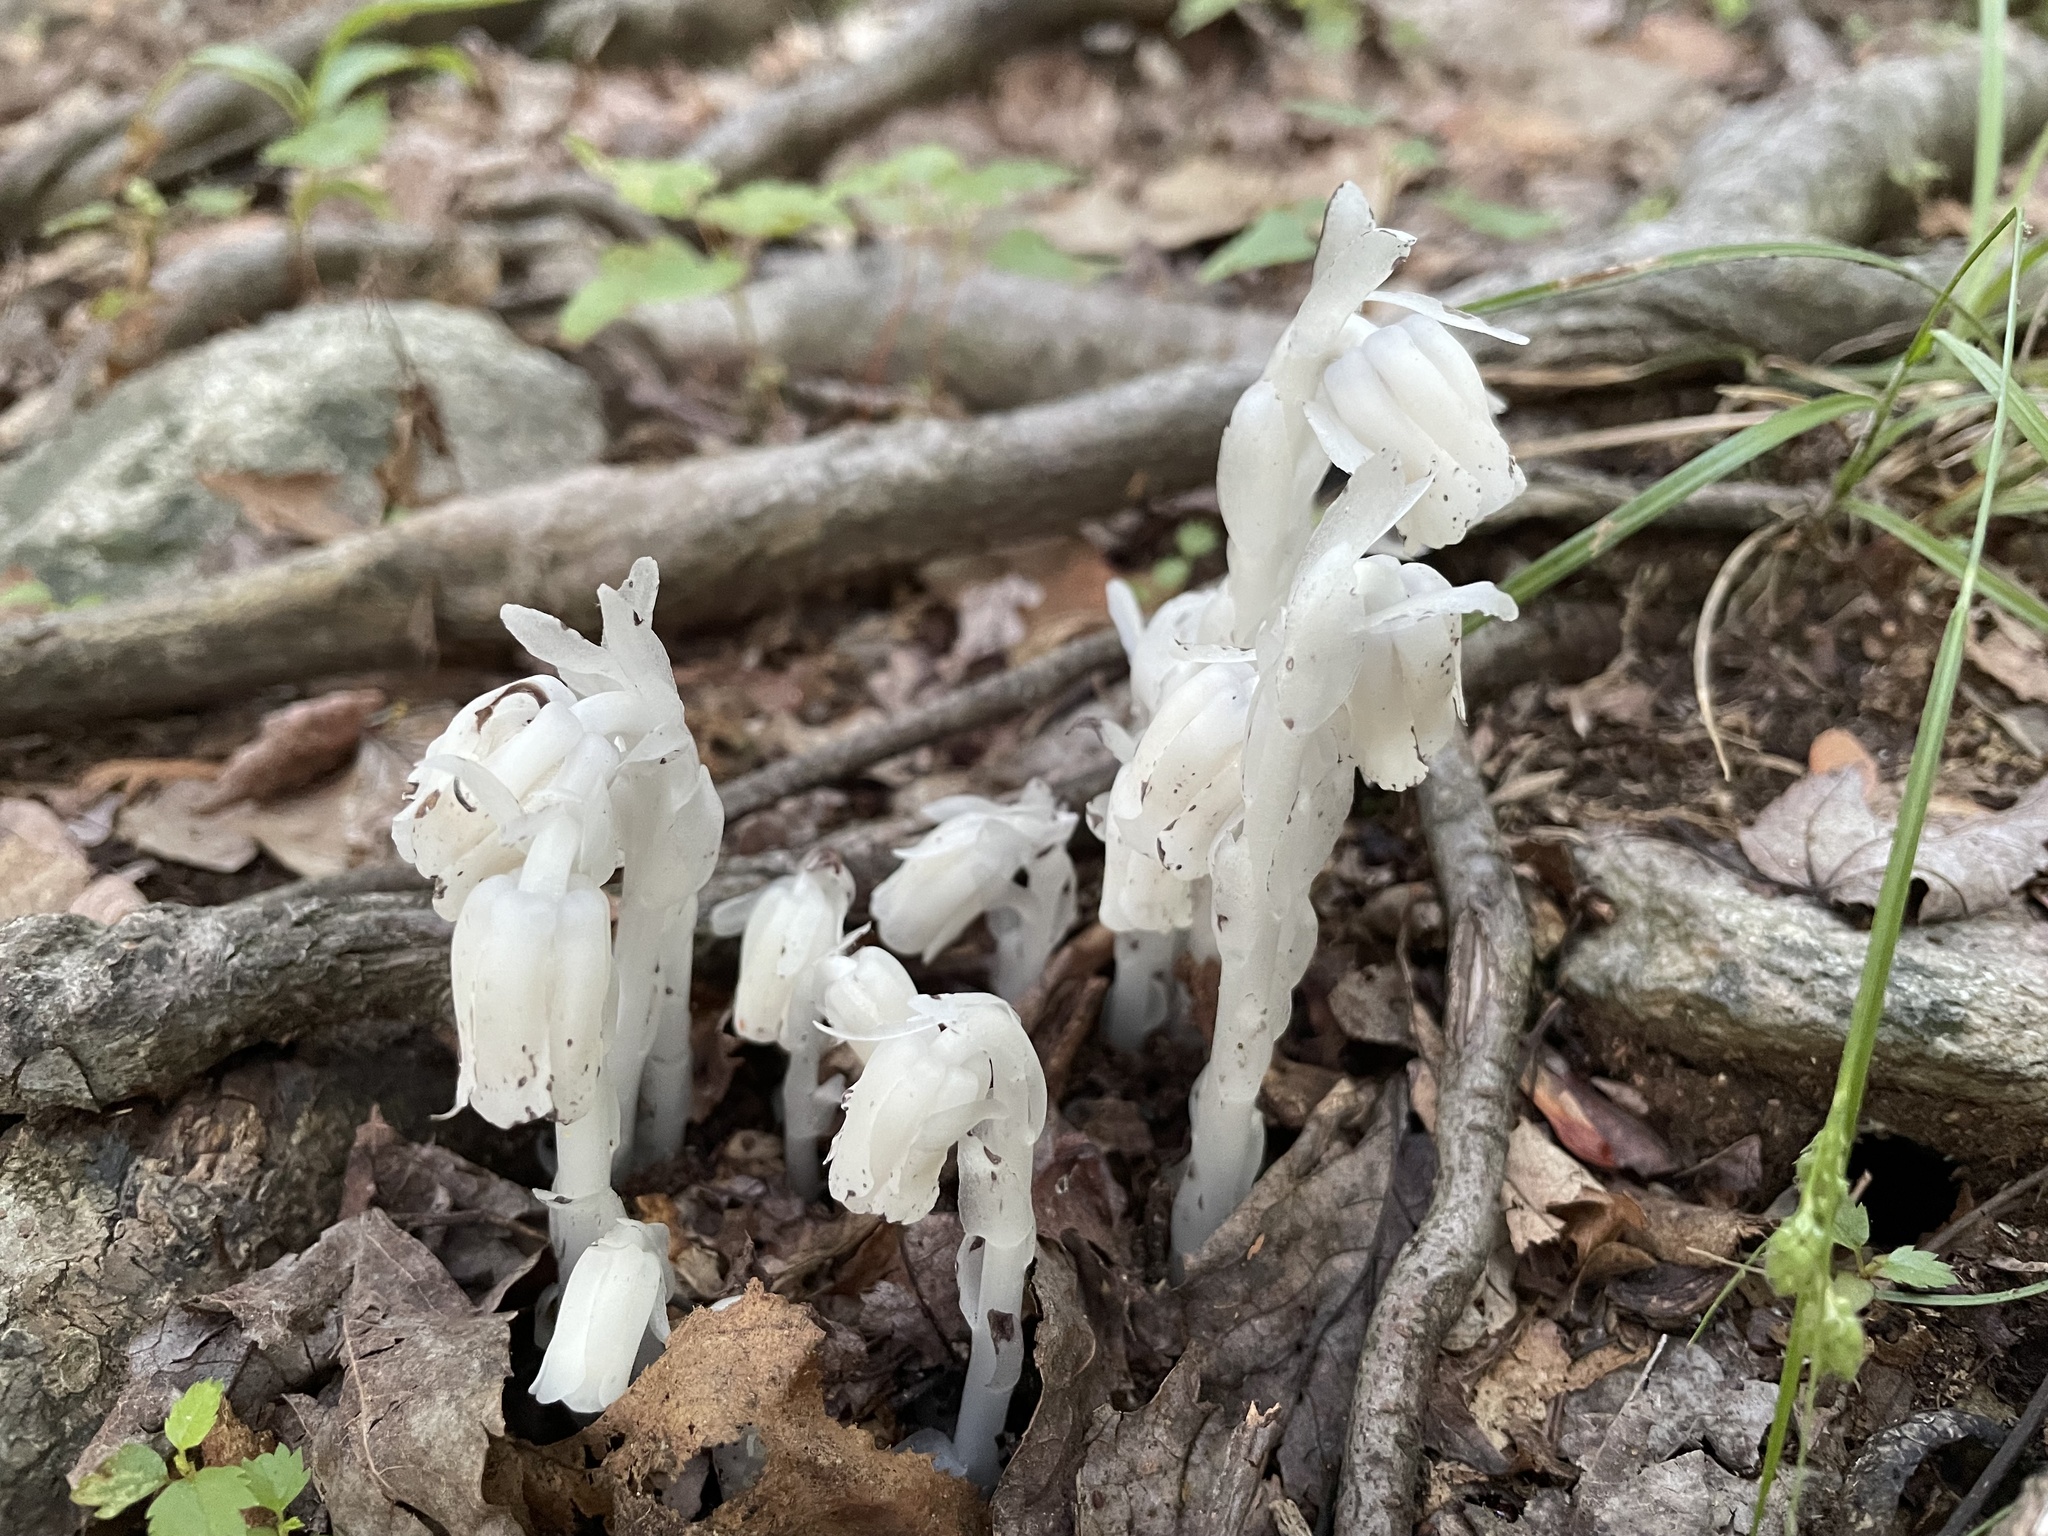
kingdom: Plantae
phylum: Tracheophyta
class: Magnoliopsida
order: Ericales
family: Ericaceae
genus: Monotropa
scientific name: Monotropa uniflora
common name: Convulsion root
